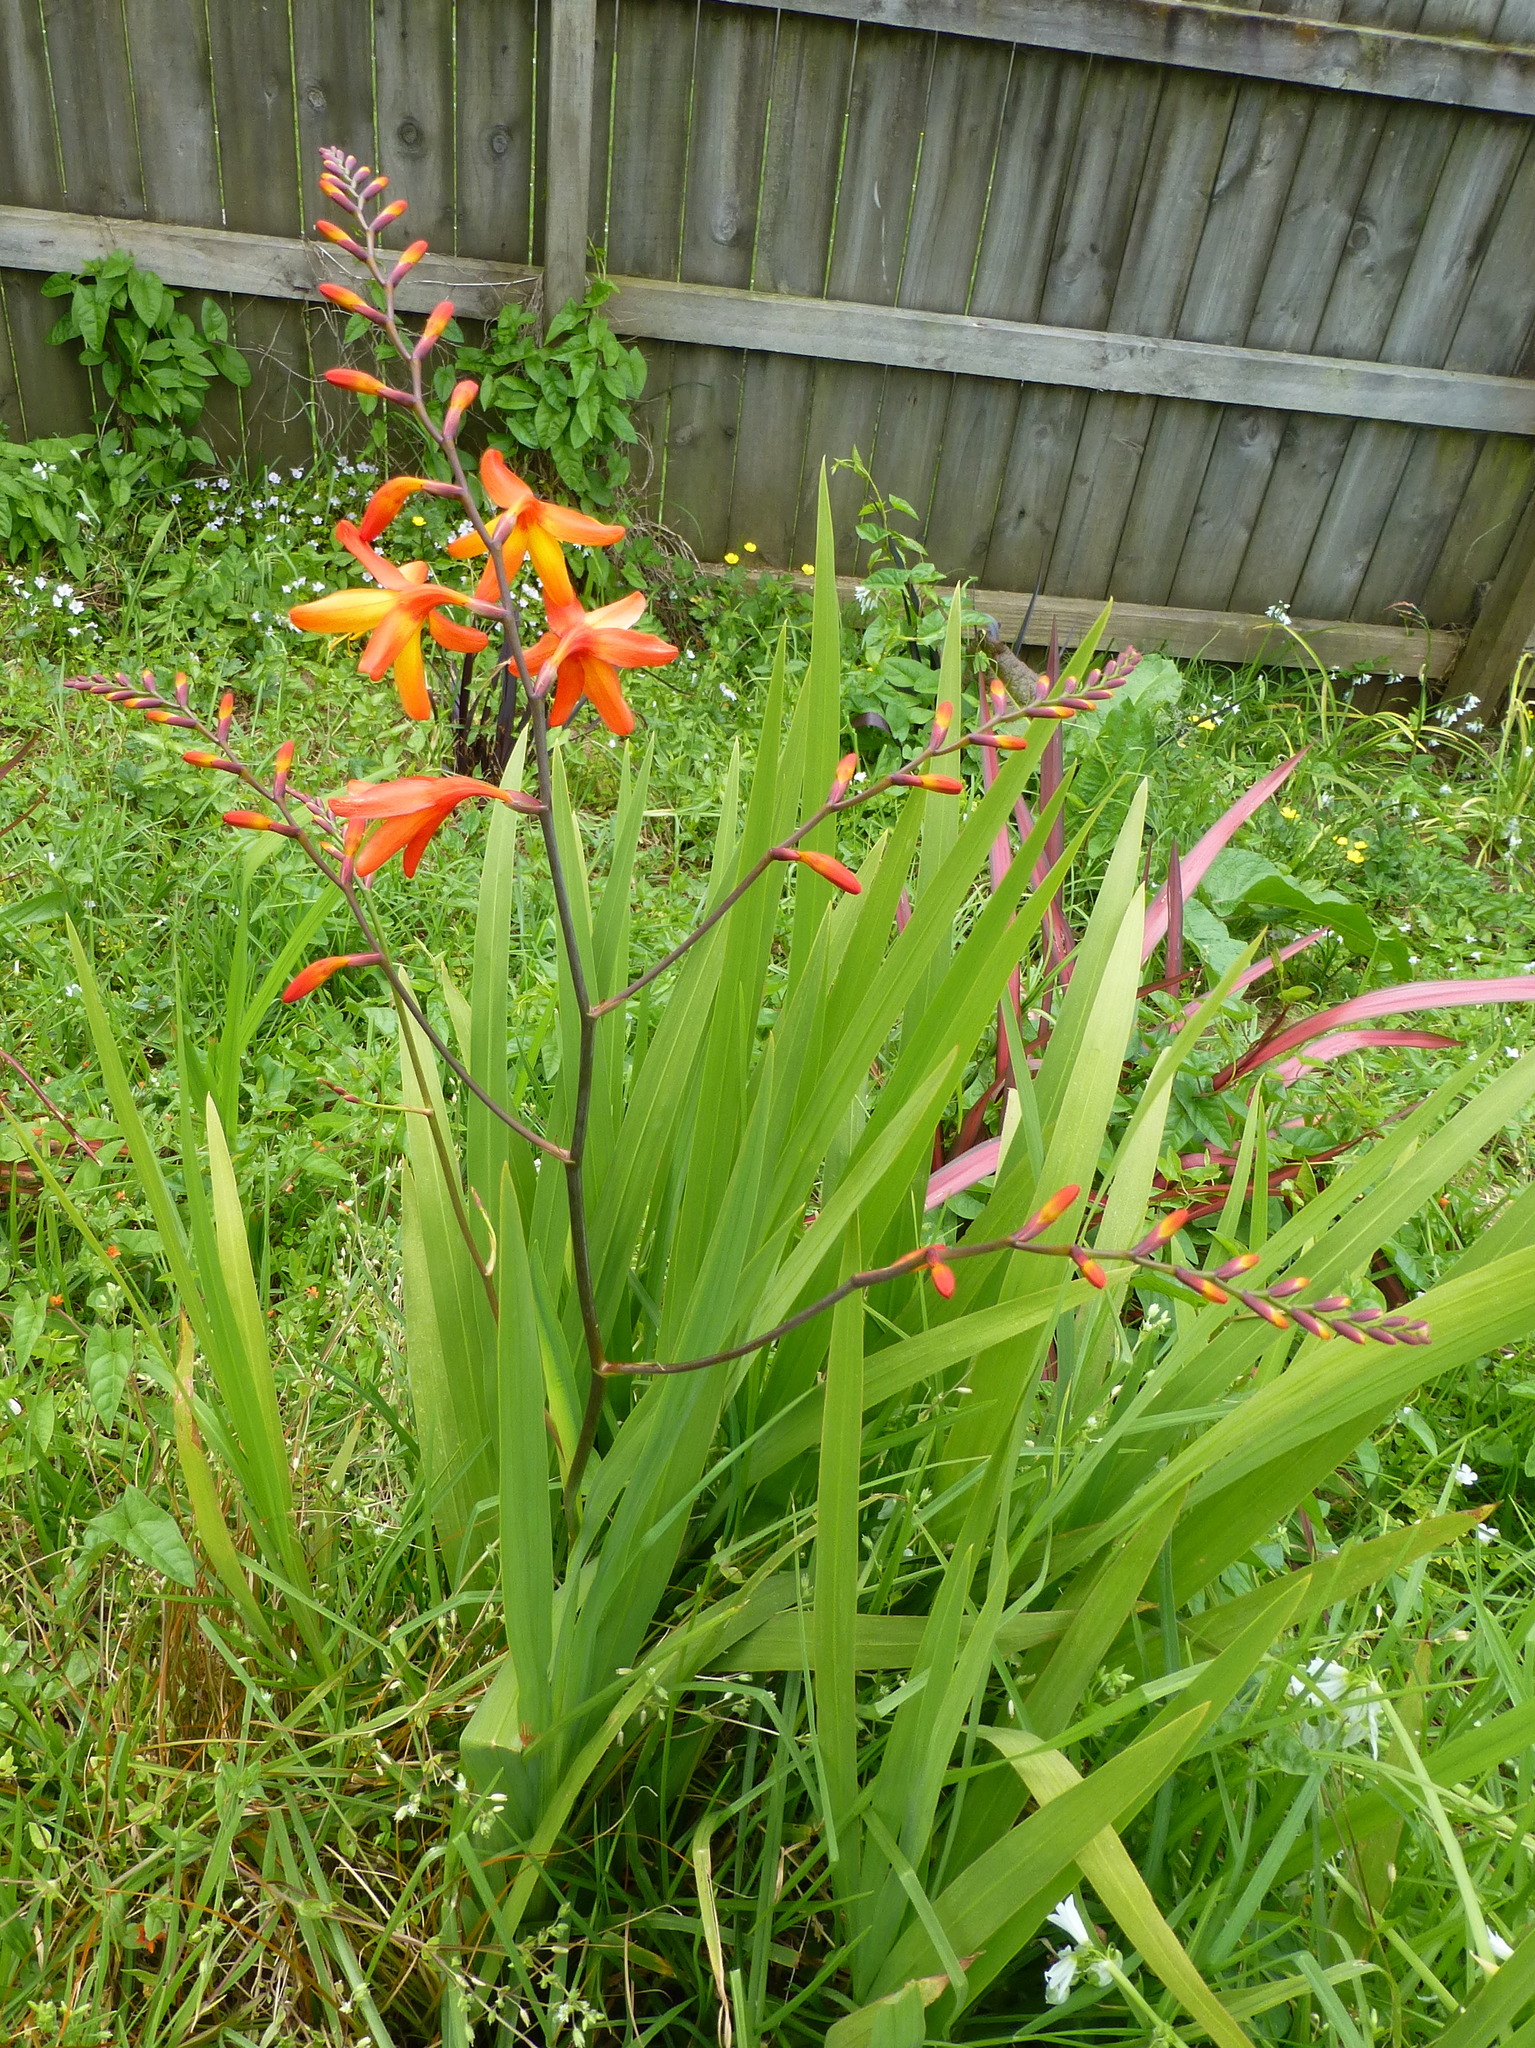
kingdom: Plantae
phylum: Tracheophyta
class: Liliopsida
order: Asparagales
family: Iridaceae
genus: Crocosmia
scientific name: Crocosmia crocosmiiflora
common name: Montbretia
